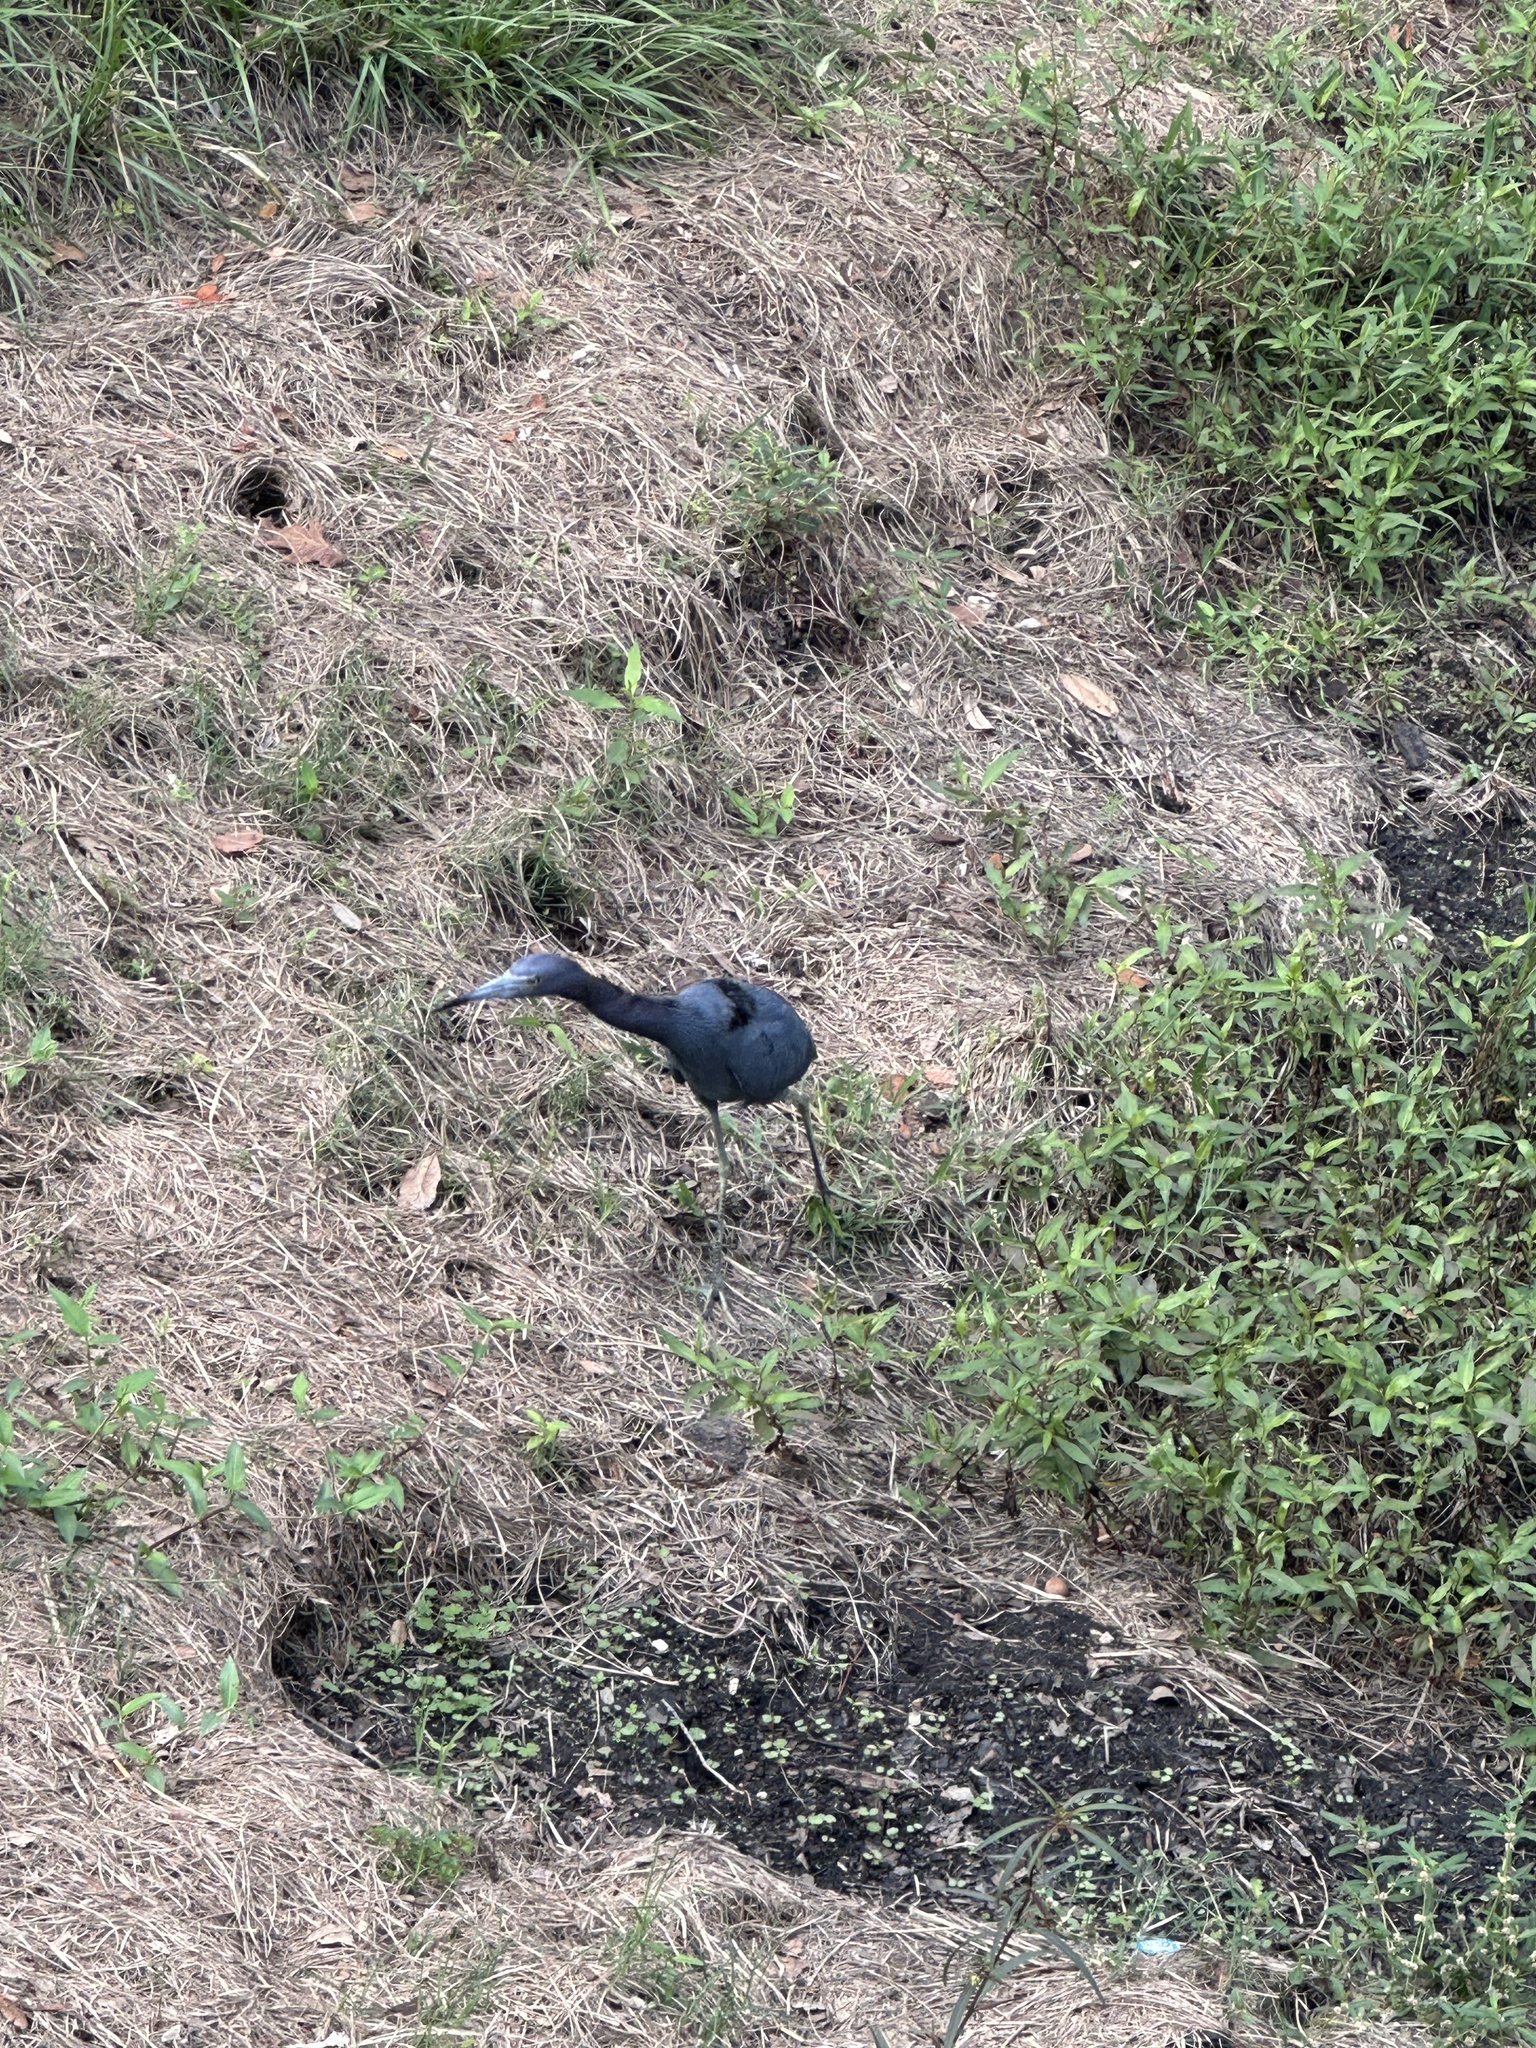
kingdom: Animalia
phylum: Chordata
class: Aves
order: Pelecaniformes
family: Ardeidae
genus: Egretta
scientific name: Egretta caerulea
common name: Little blue heron
